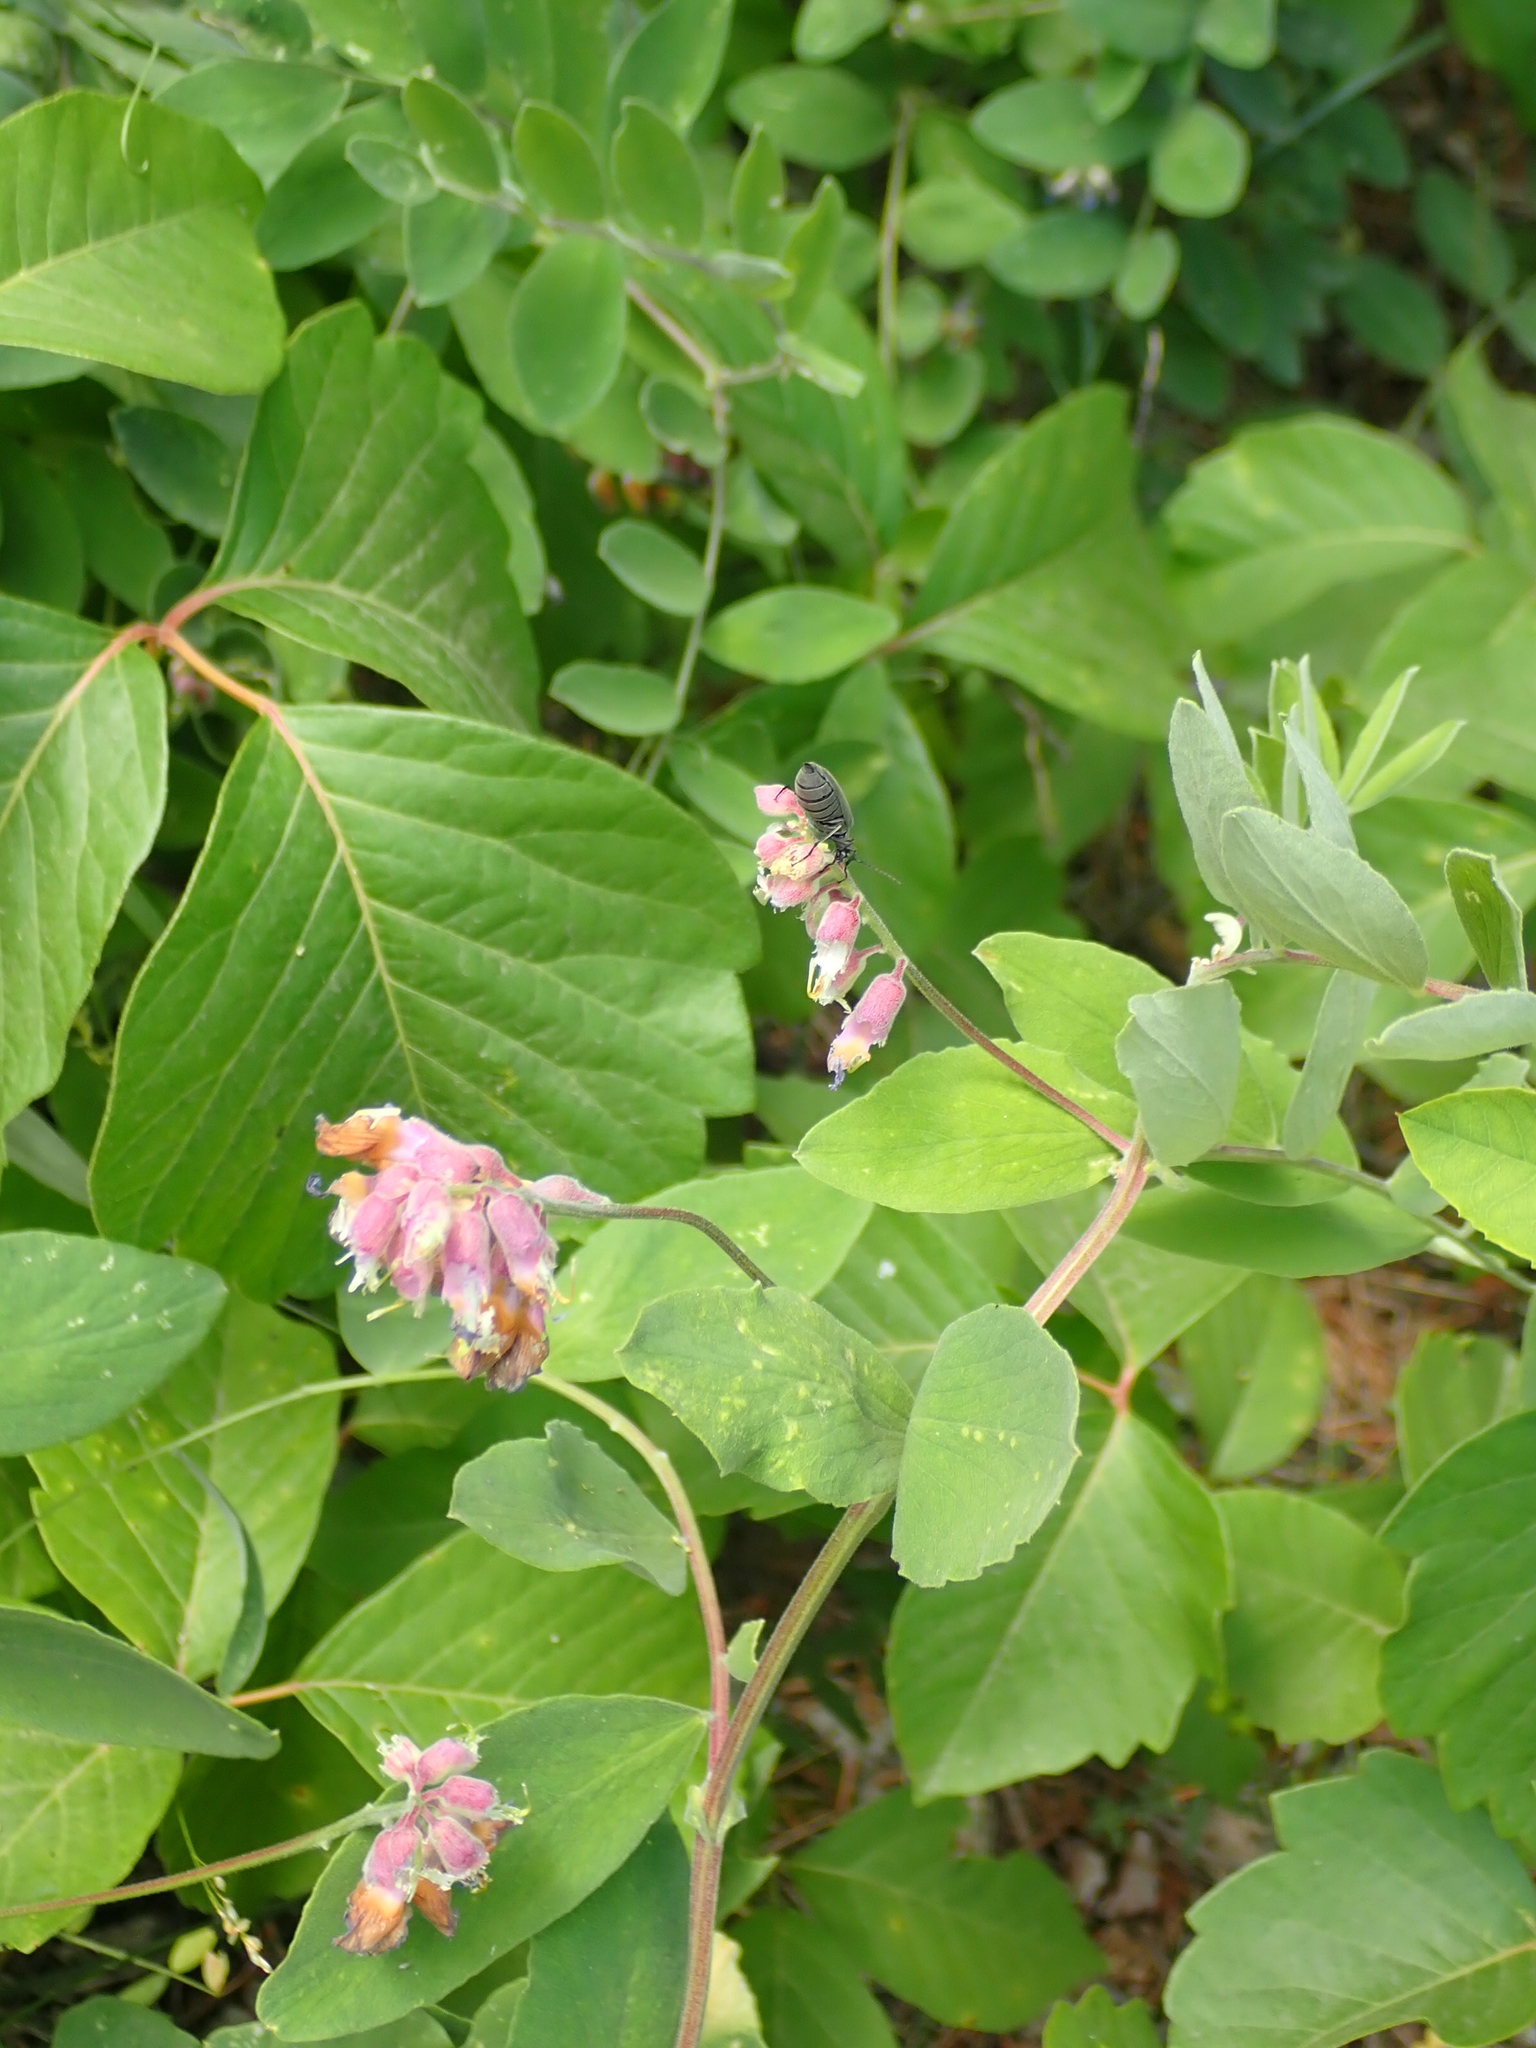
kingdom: Plantae
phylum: Tracheophyta
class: Magnoliopsida
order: Fabales
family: Fabaceae
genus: Lathyrus
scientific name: Lathyrus venosus
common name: Forest-pea
